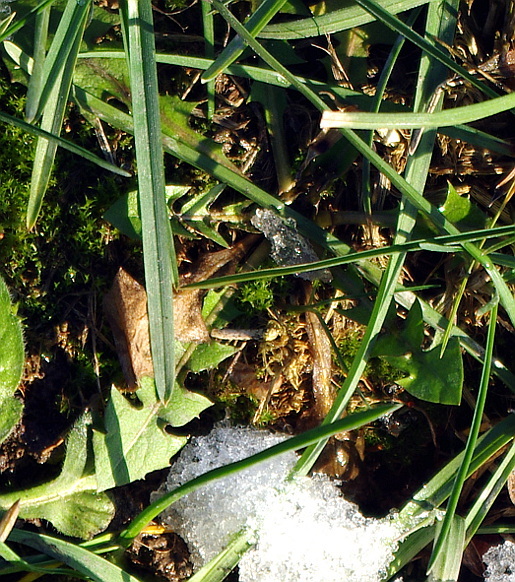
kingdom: Plantae
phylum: Tracheophyta
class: Magnoliopsida
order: Asterales
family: Asteraceae
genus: Taraxacum
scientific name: Taraxacum officinale
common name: Common dandelion
